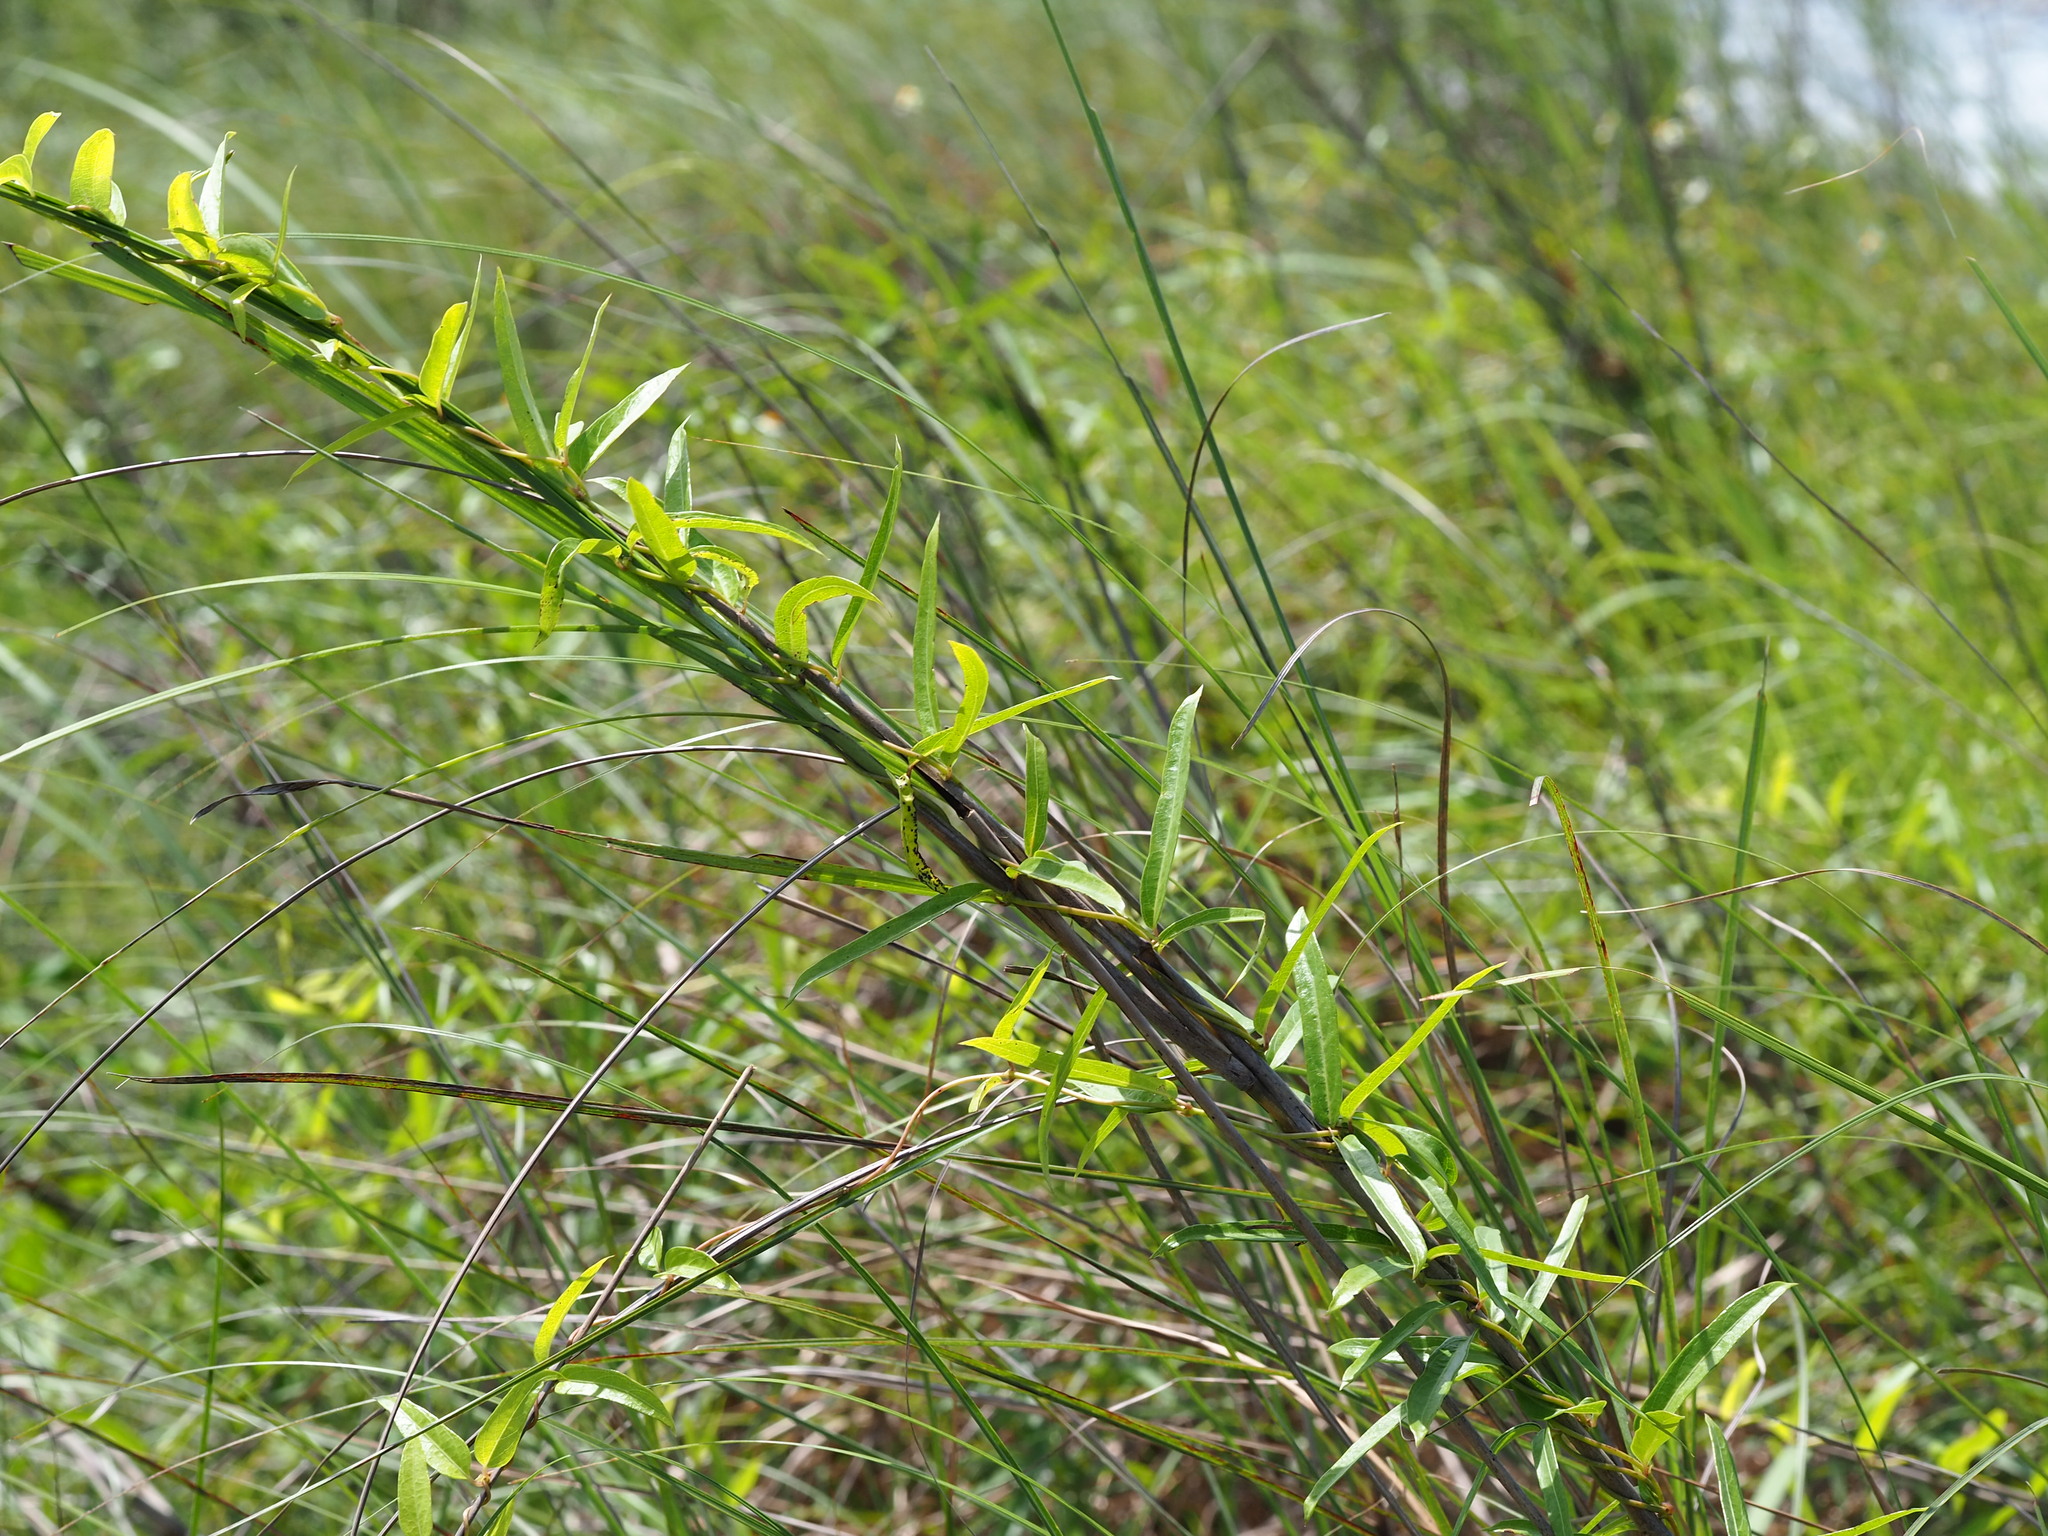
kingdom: Plantae
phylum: Tracheophyta
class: Magnoliopsida
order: Gentianales
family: Rubiaceae
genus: Paederia
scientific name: Paederia foetida
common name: Stinkvine
